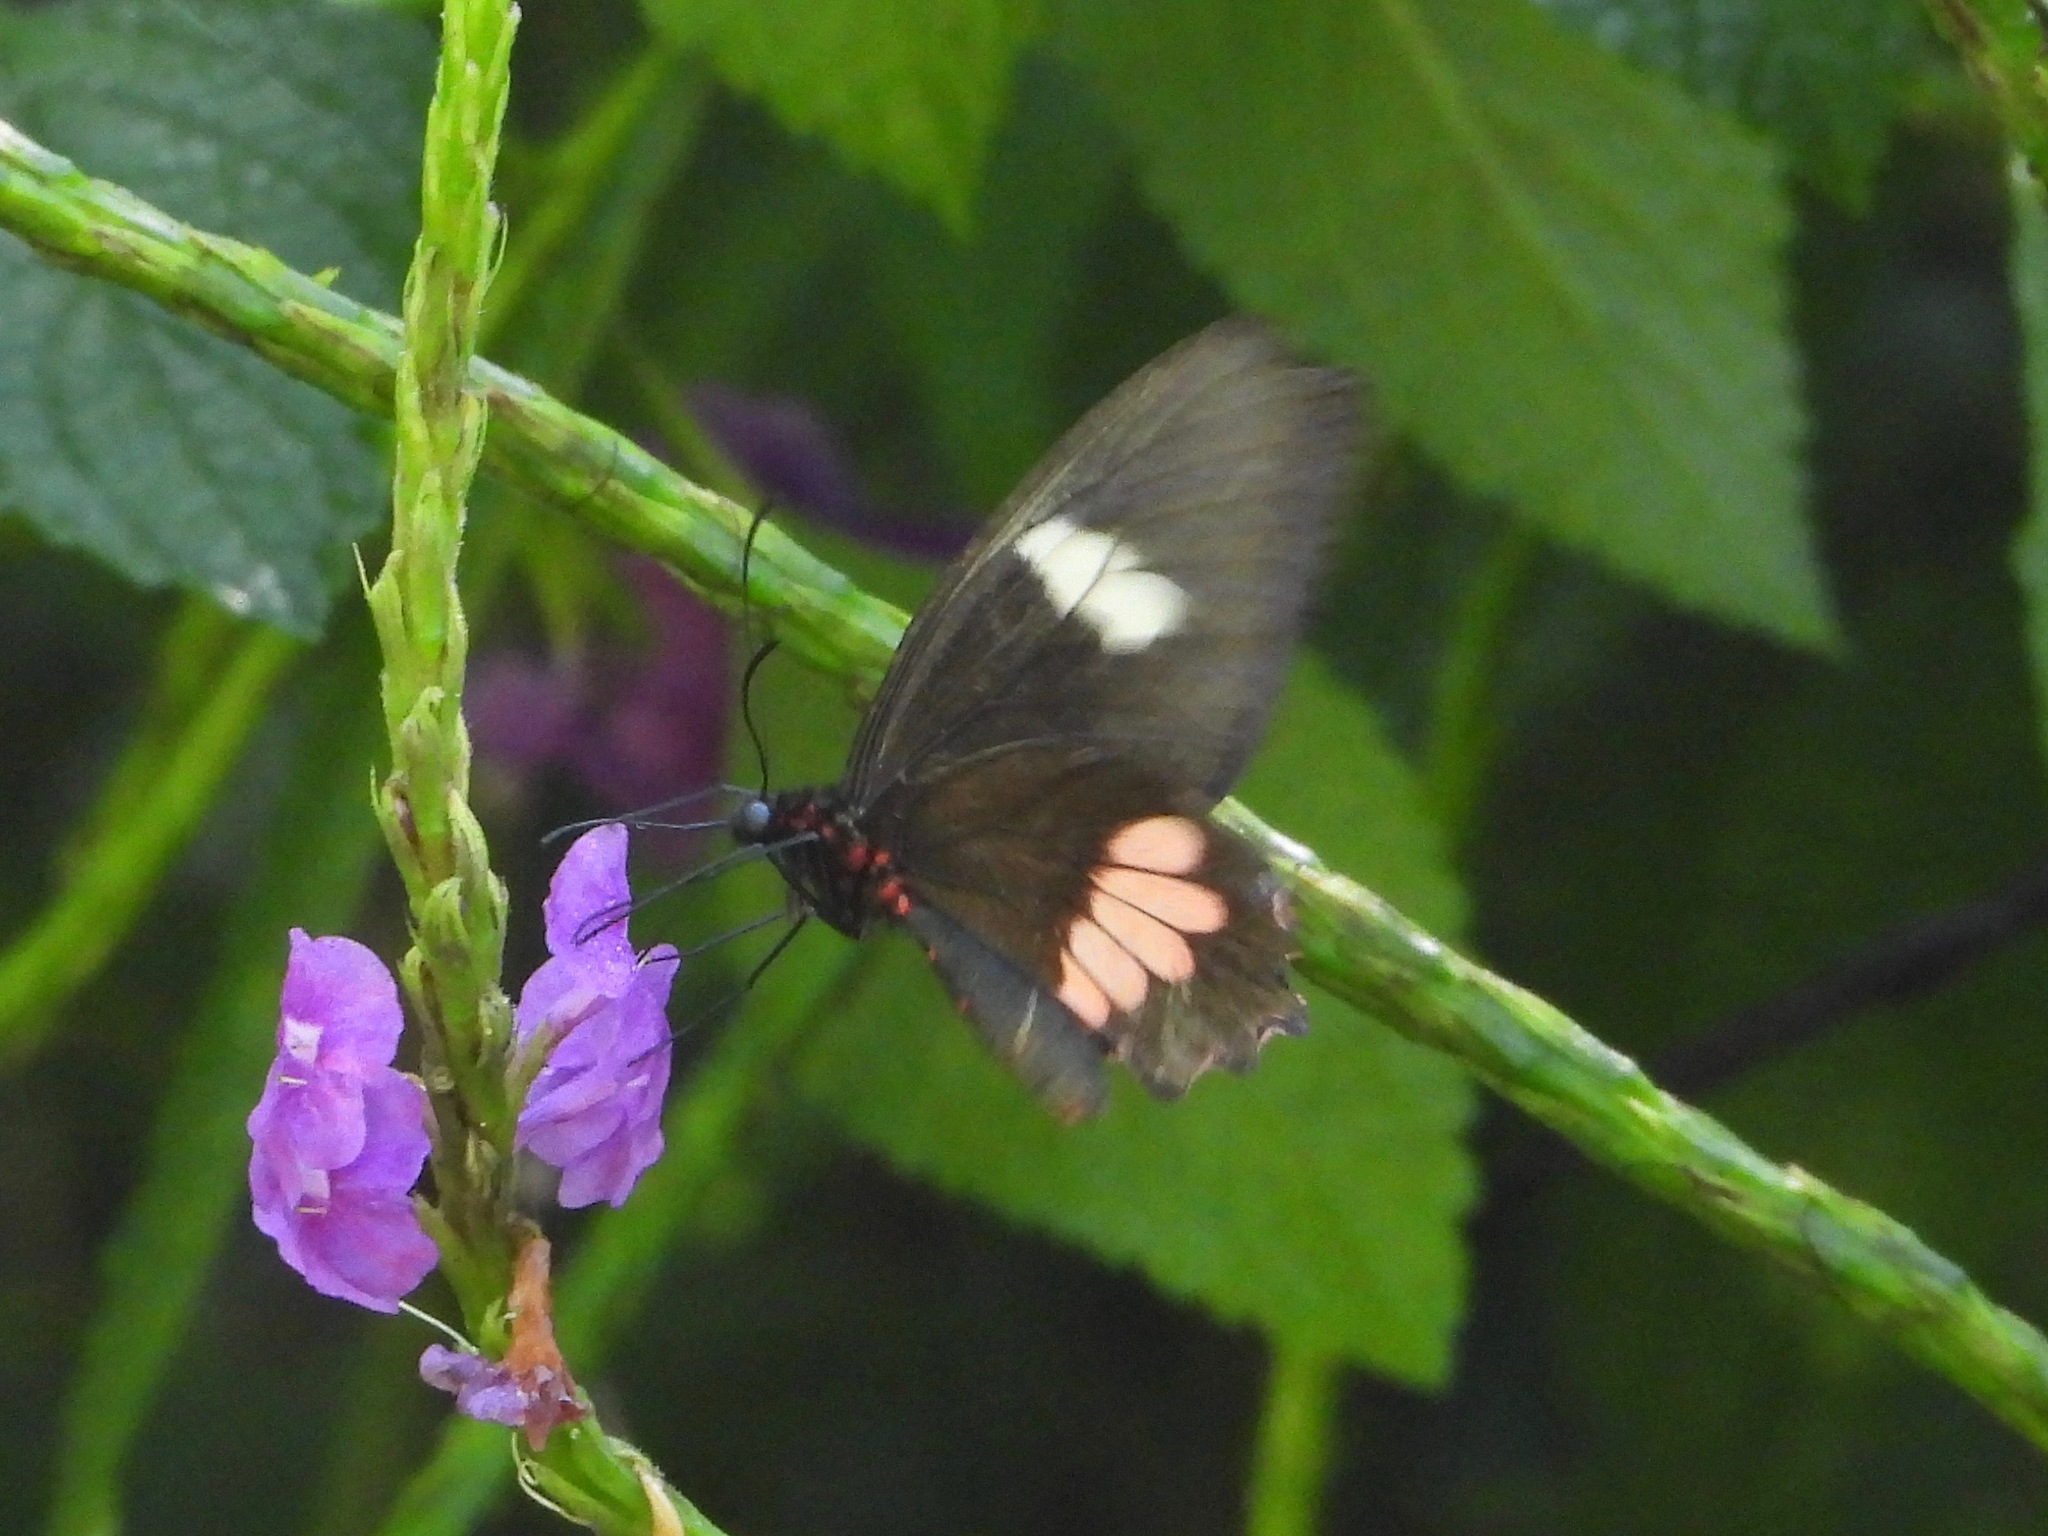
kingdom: Animalia
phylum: Arthropoda
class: Insecta
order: Lepidoptera
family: Papilionidae
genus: Parides
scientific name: Parides eurimedes
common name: True cattleheart
